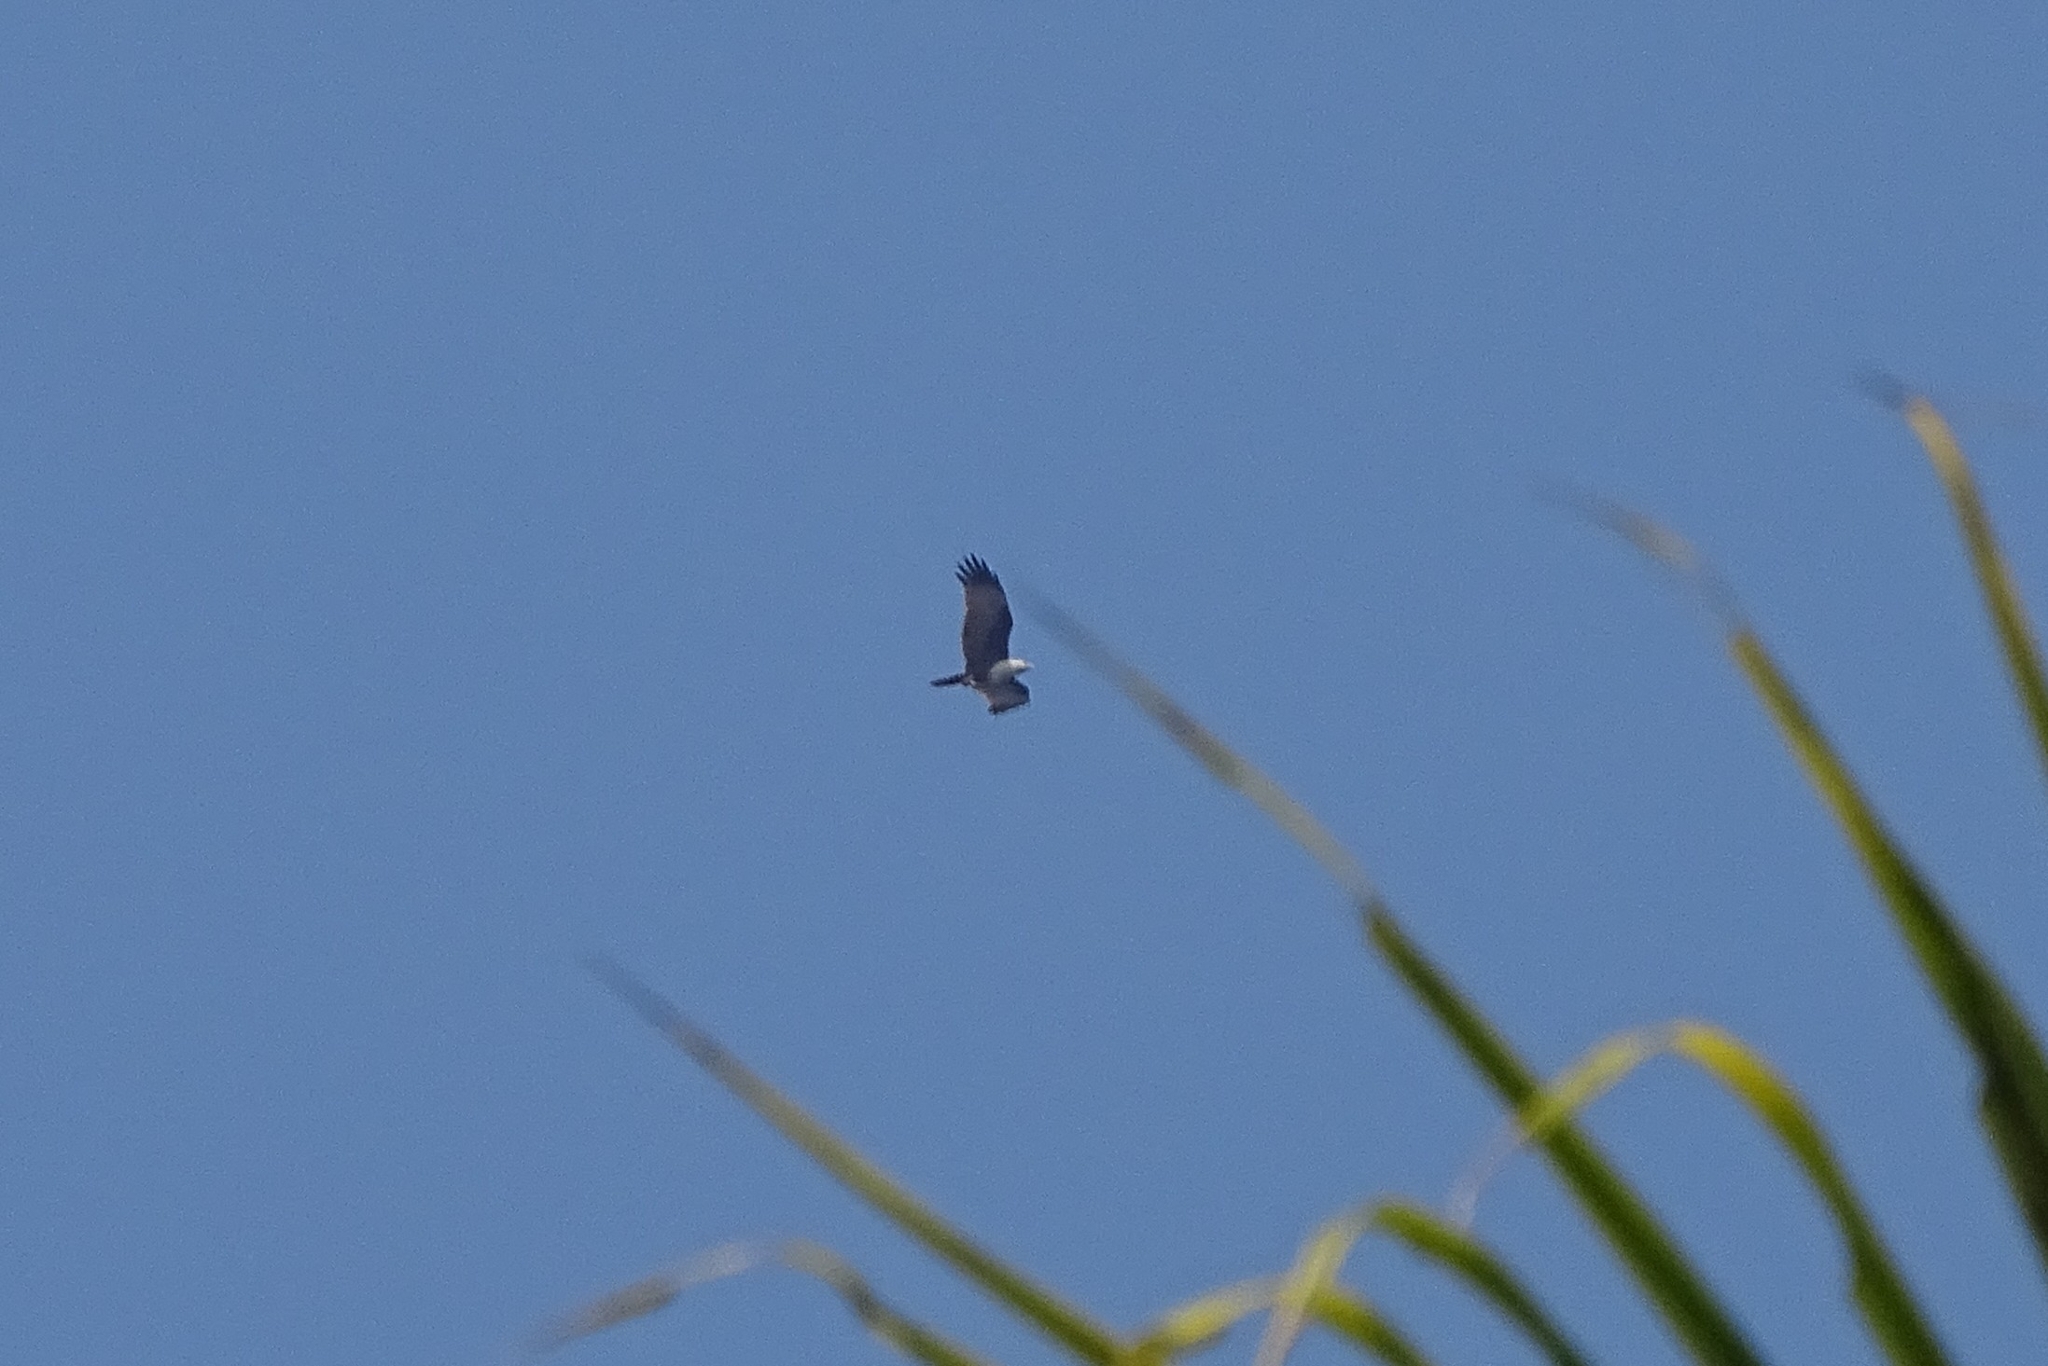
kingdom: Animalia
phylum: Chordata
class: Aves
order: Accipitriformes
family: Accipitridae
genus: Haliastur
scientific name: Haliastur indus
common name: Brahminy kite
